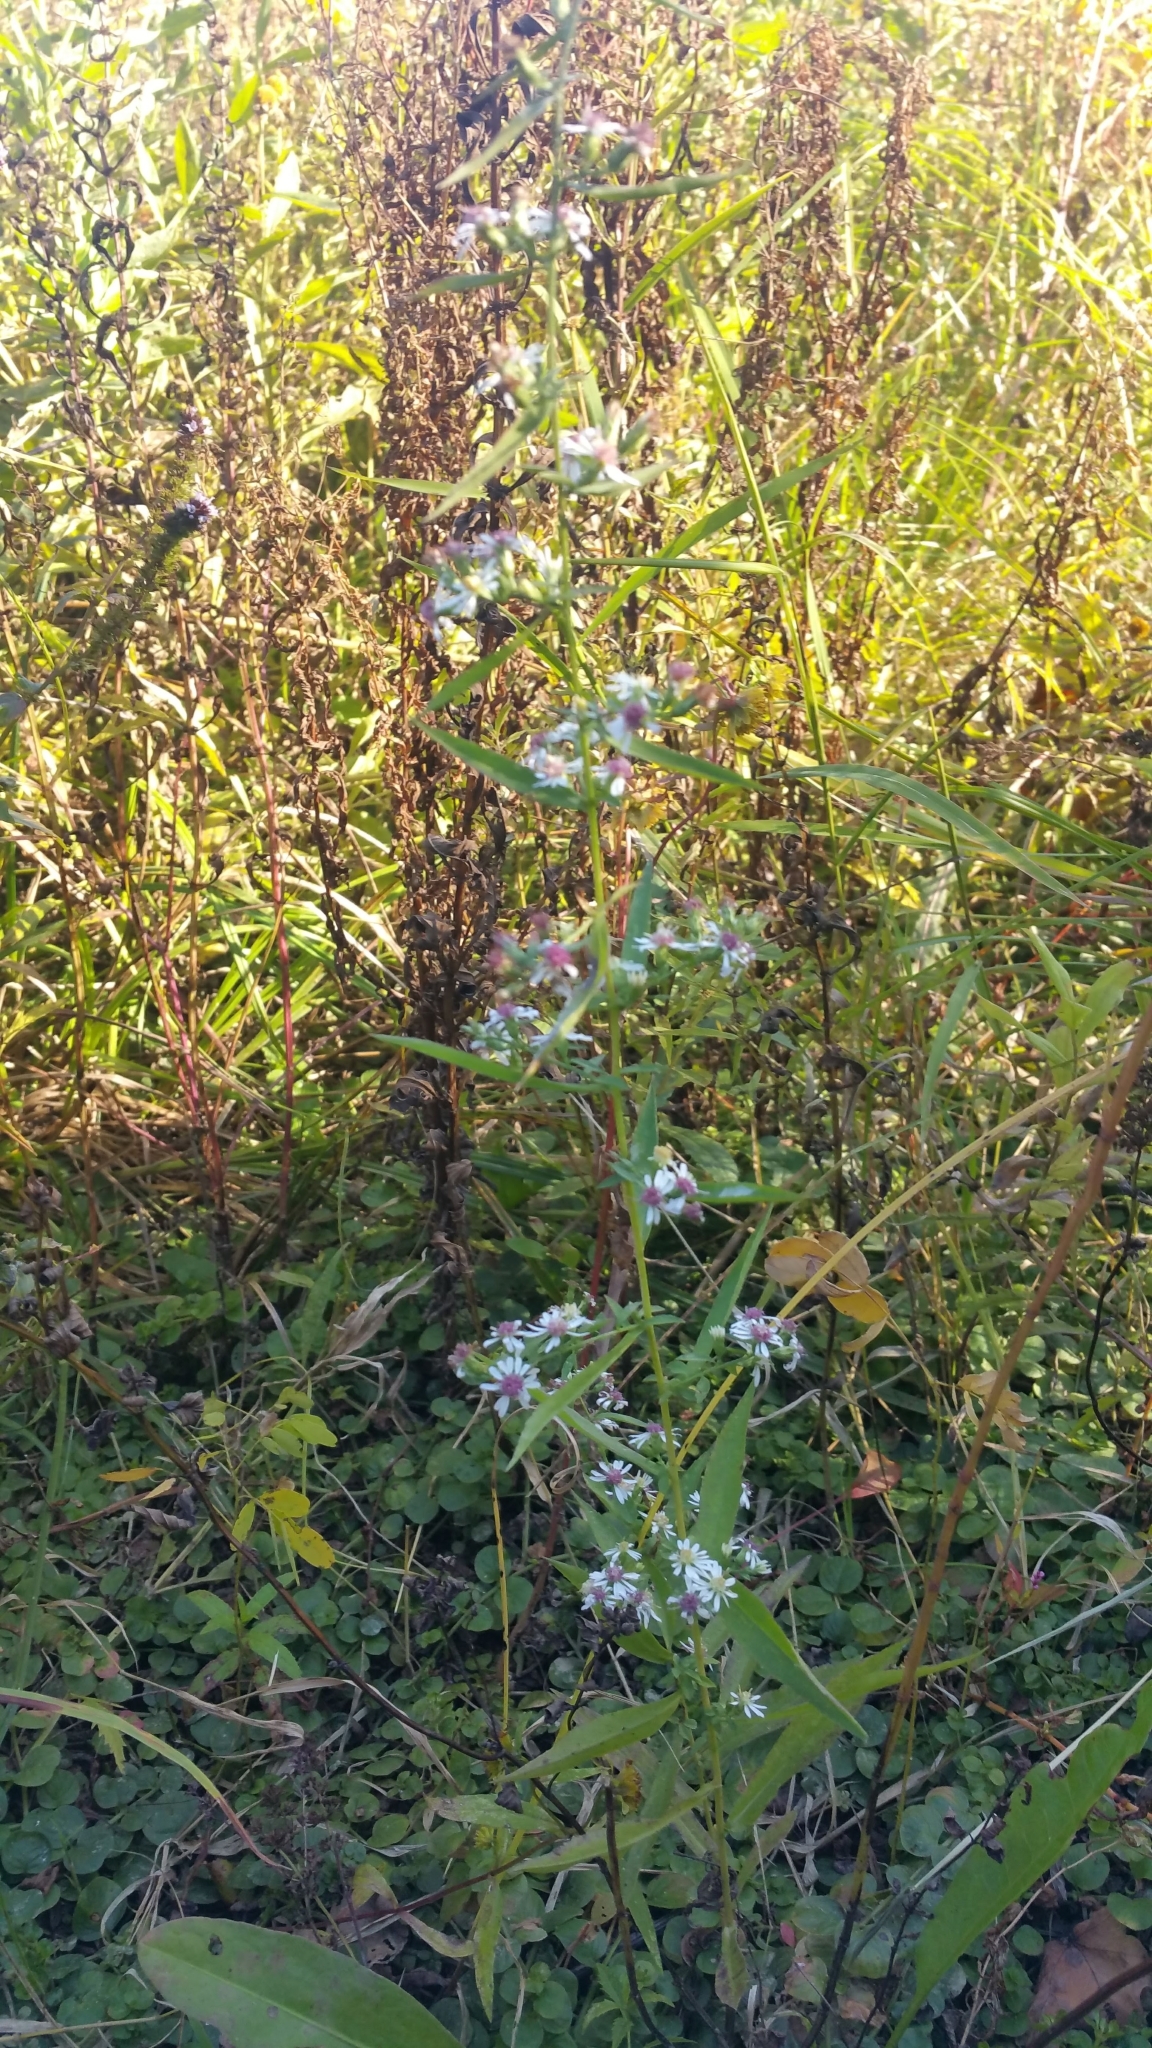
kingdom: Plantae
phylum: Tracheophyta
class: Magnoliopsida
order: Asterales
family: Asteraceae
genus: Symphyotrichum
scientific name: Symphyotrichum lateriflorum
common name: Calico aster
